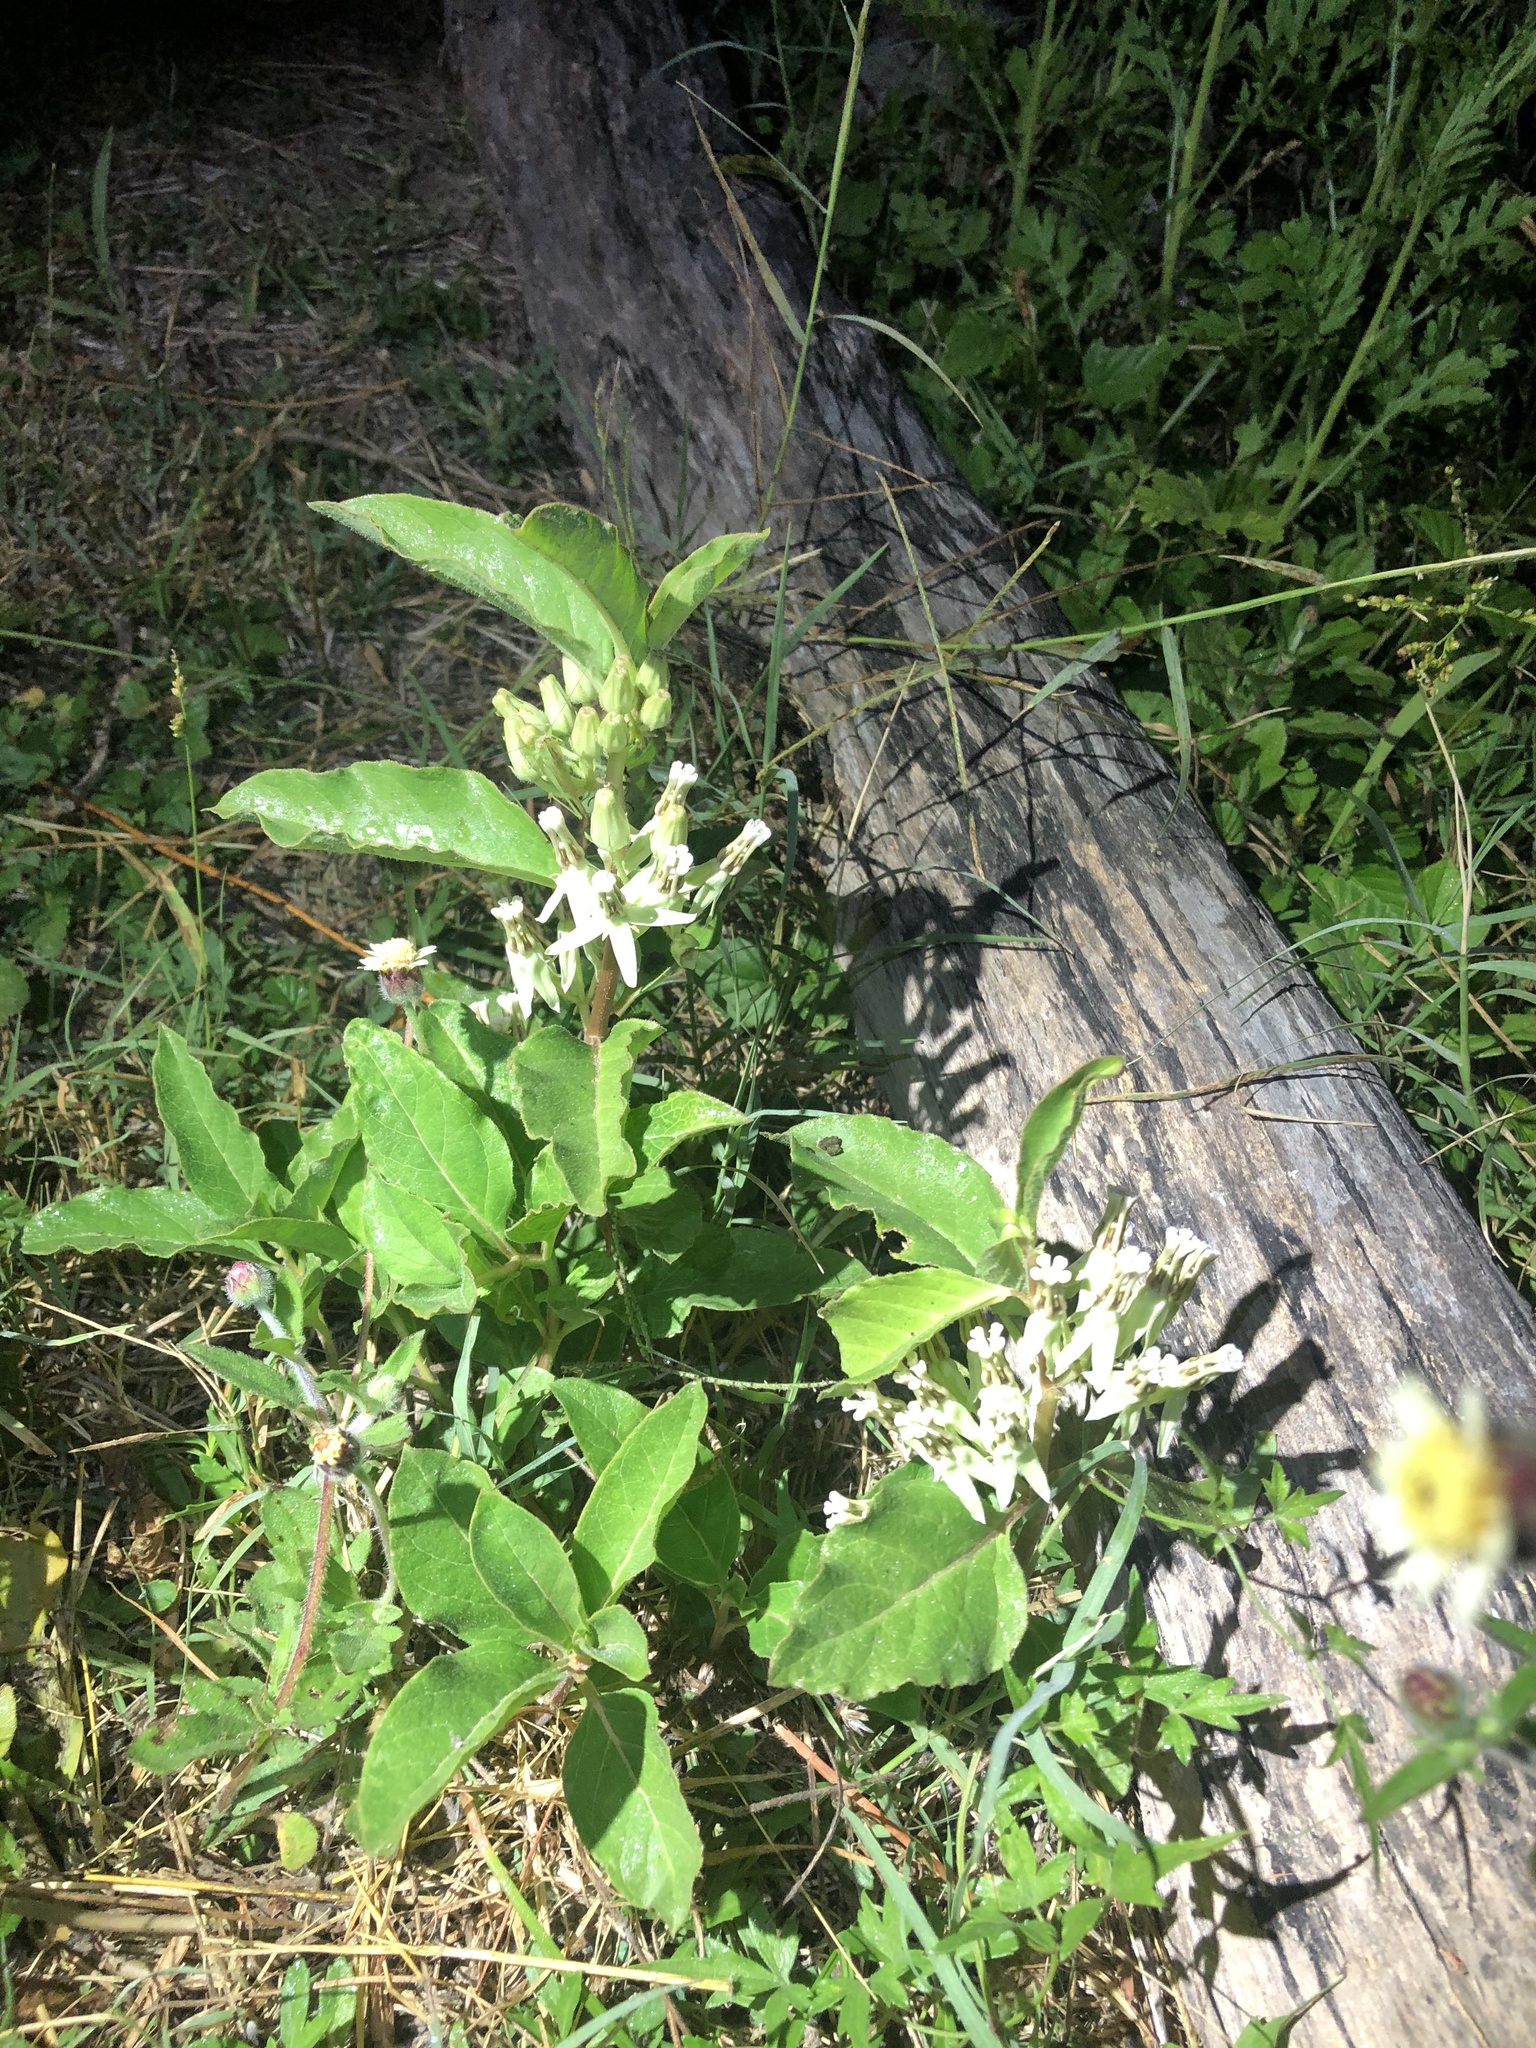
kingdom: Plantae
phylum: Tracheophyta
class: Magnoliopsida
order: Gentianales
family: Apocynaceae
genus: Asclepias
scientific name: Asclepias oenotheroides
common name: Zizotes milkweed
